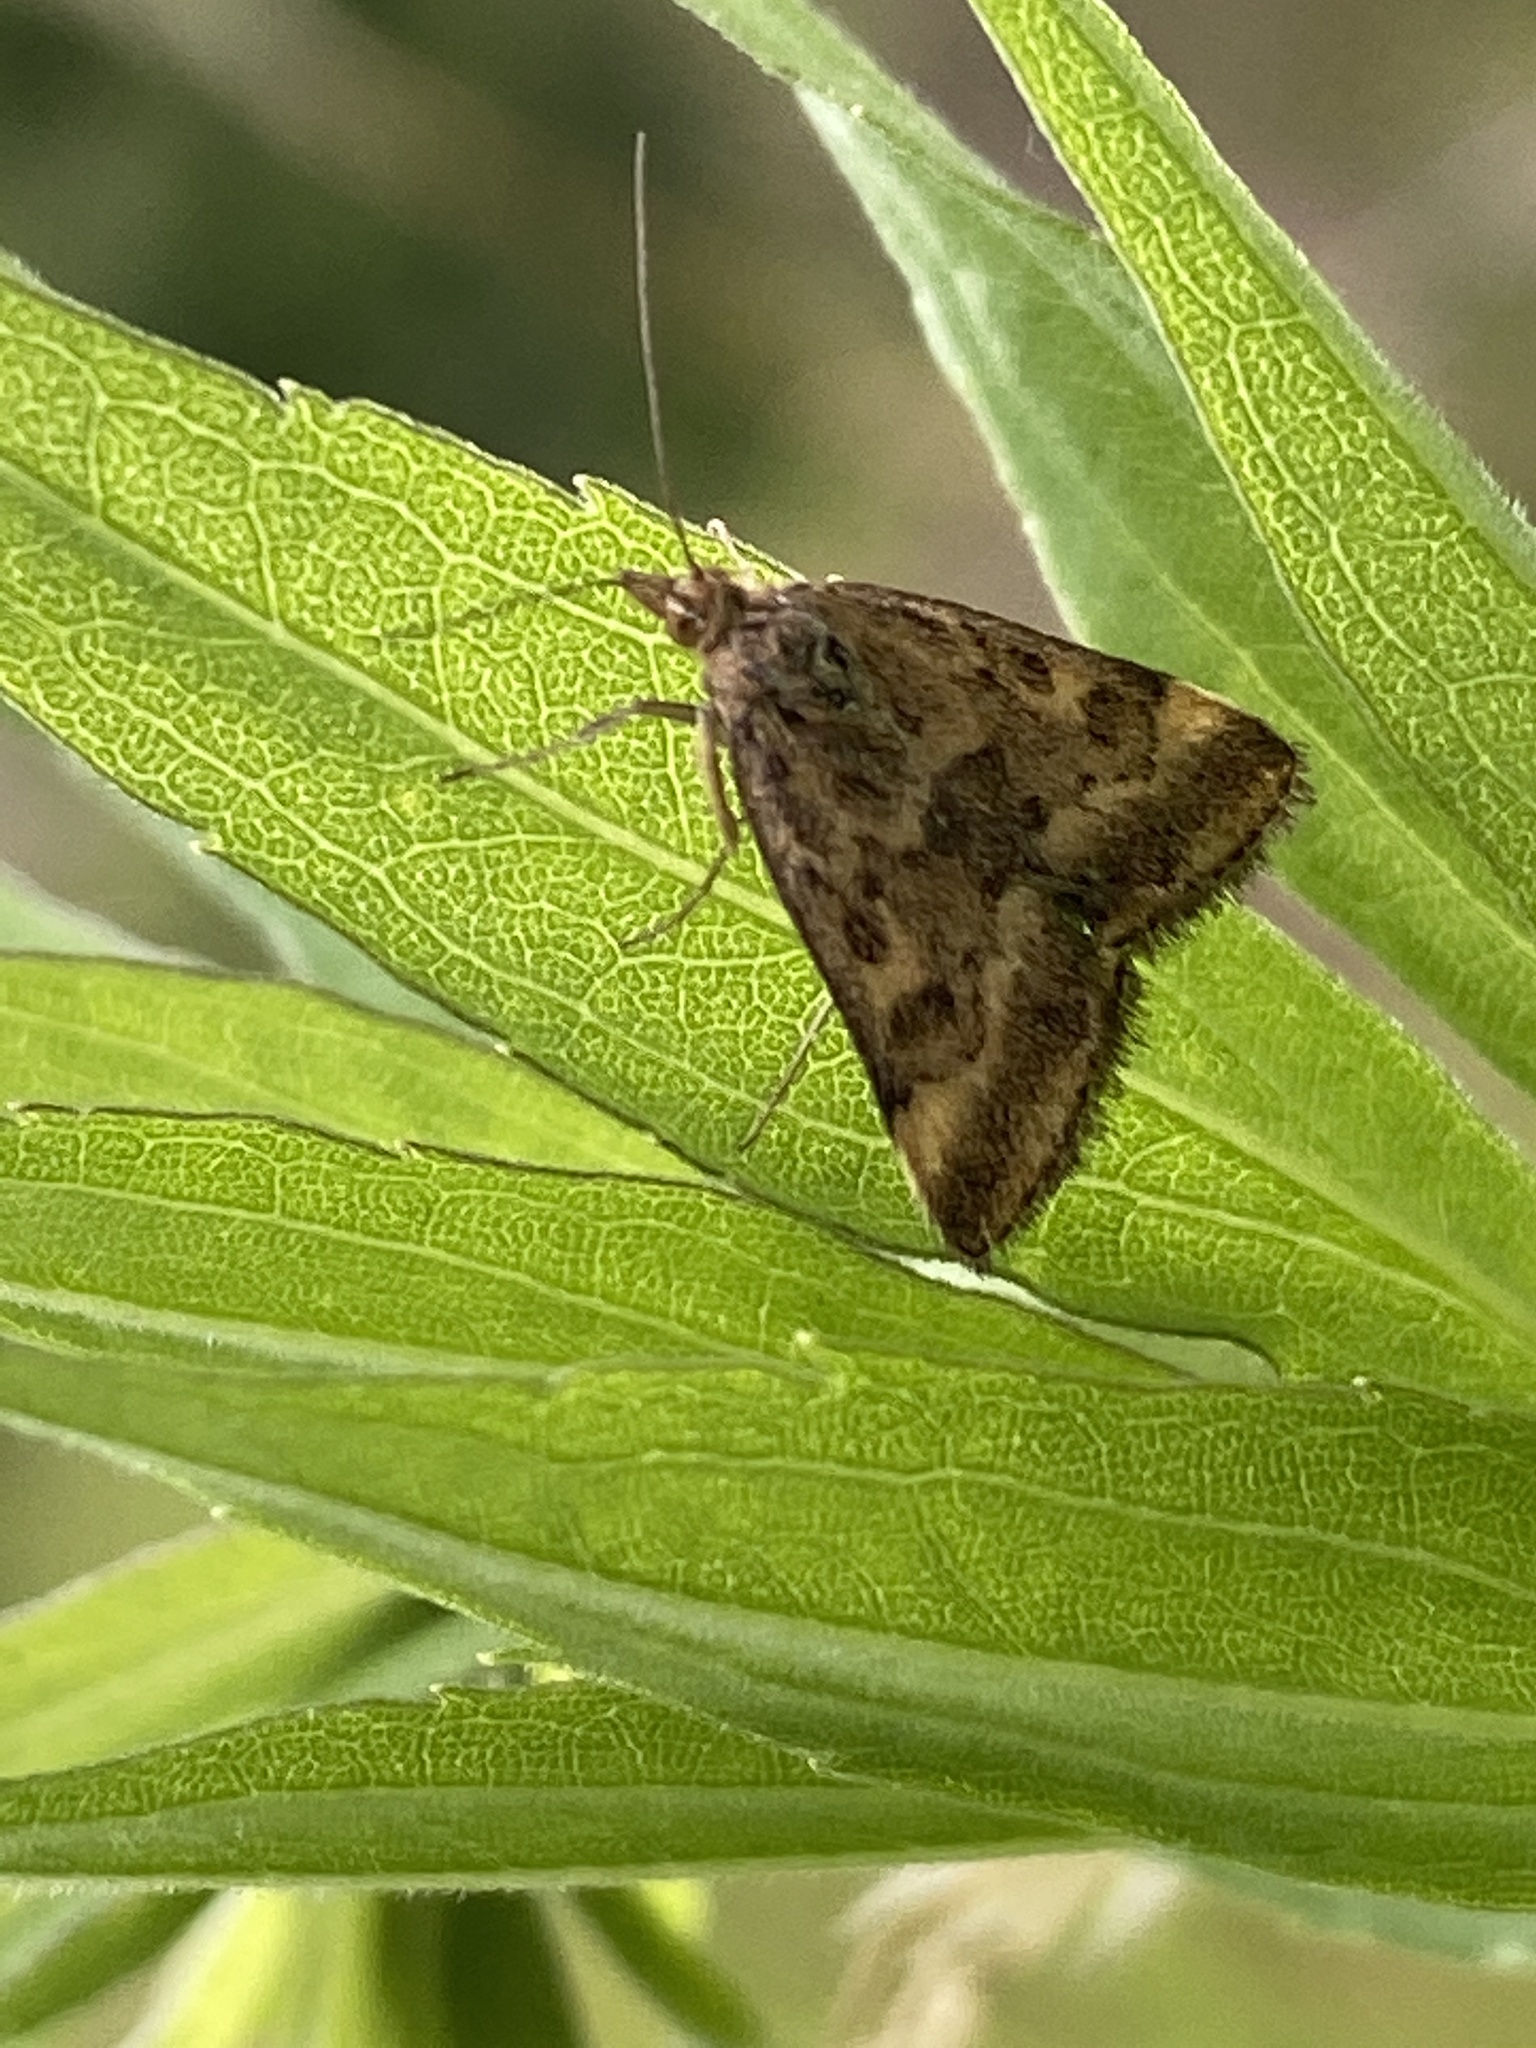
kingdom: Animalia
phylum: Arthropoda
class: Insecta
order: Lepidoptera
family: Crambidae
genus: Pyrausta
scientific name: Pyrausta despicata
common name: Straw-barred pearl
